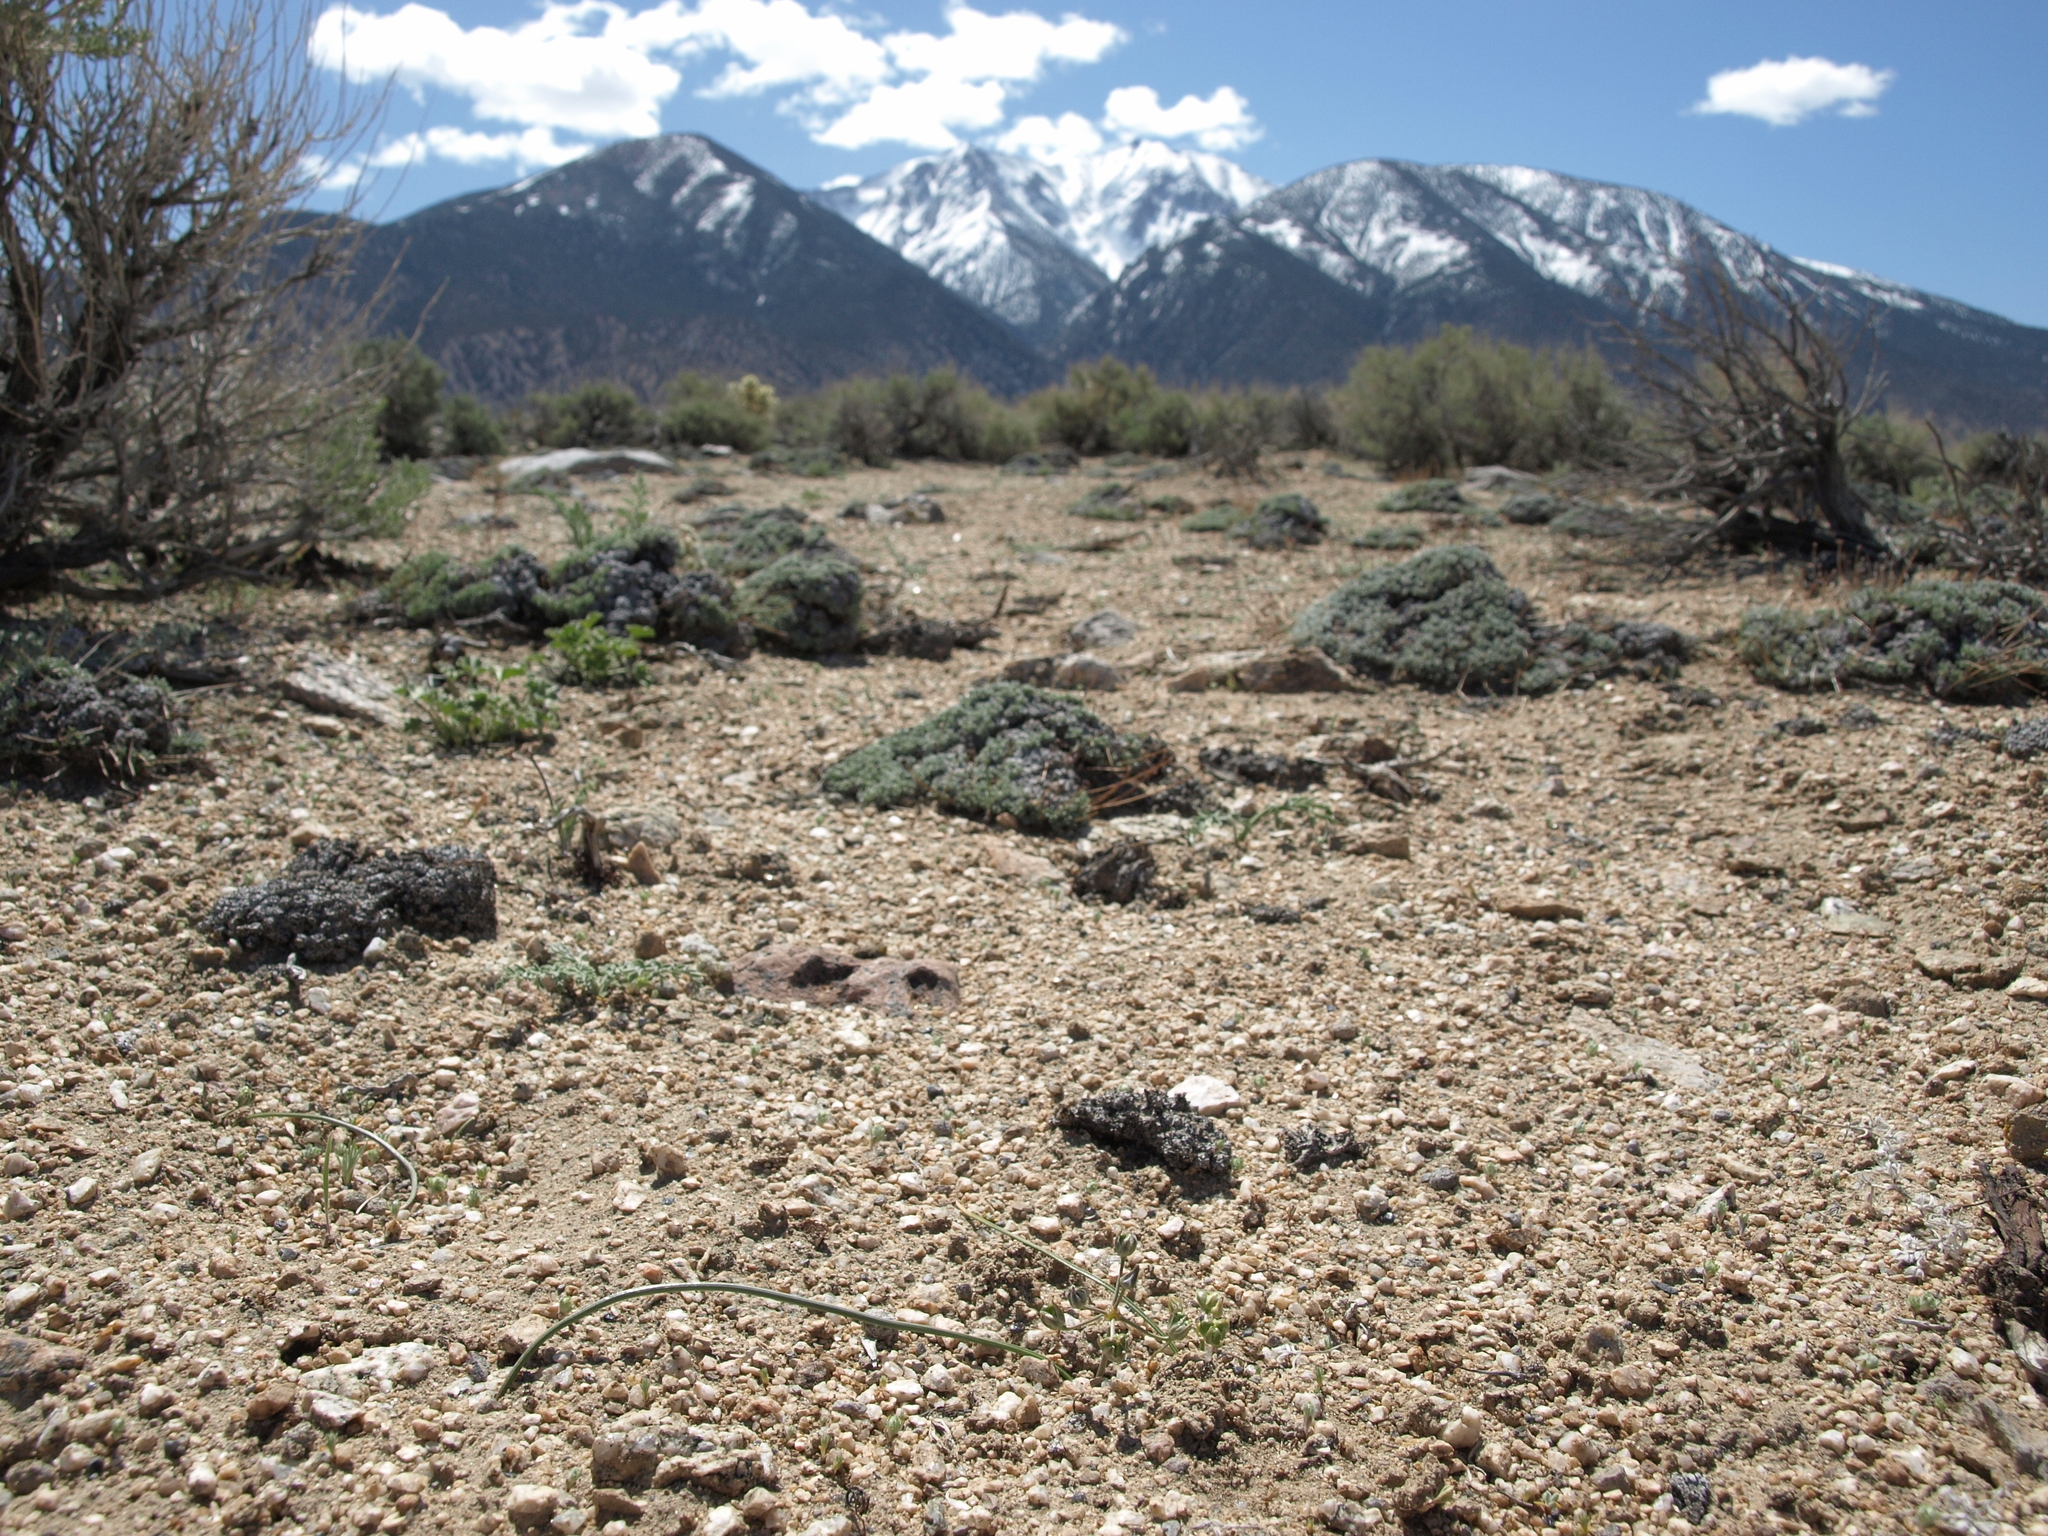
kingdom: Plantae
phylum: Tracheophyta
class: Liliopsida
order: Asparagales
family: Asparagaceae
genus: Muilla
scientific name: Muilla coronata
